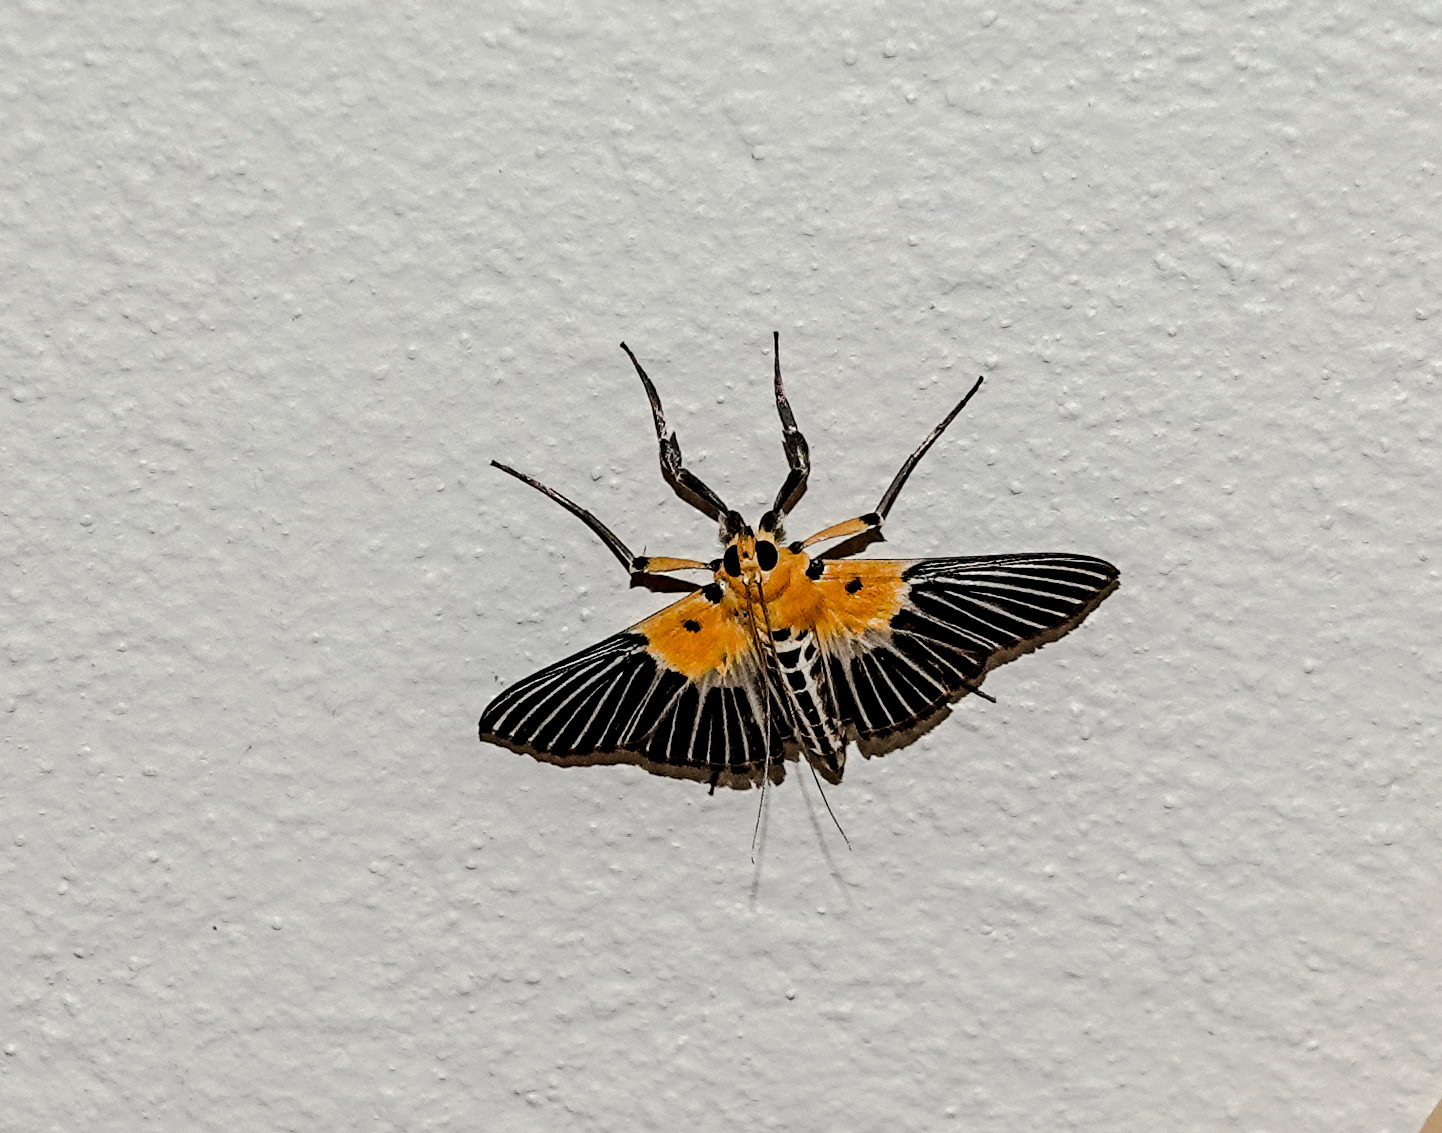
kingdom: Animalia
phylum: Arthropoda
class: Insecta
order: Lepidoptera
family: Crambidae
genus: Nevrina
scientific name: Nevrina procopia
